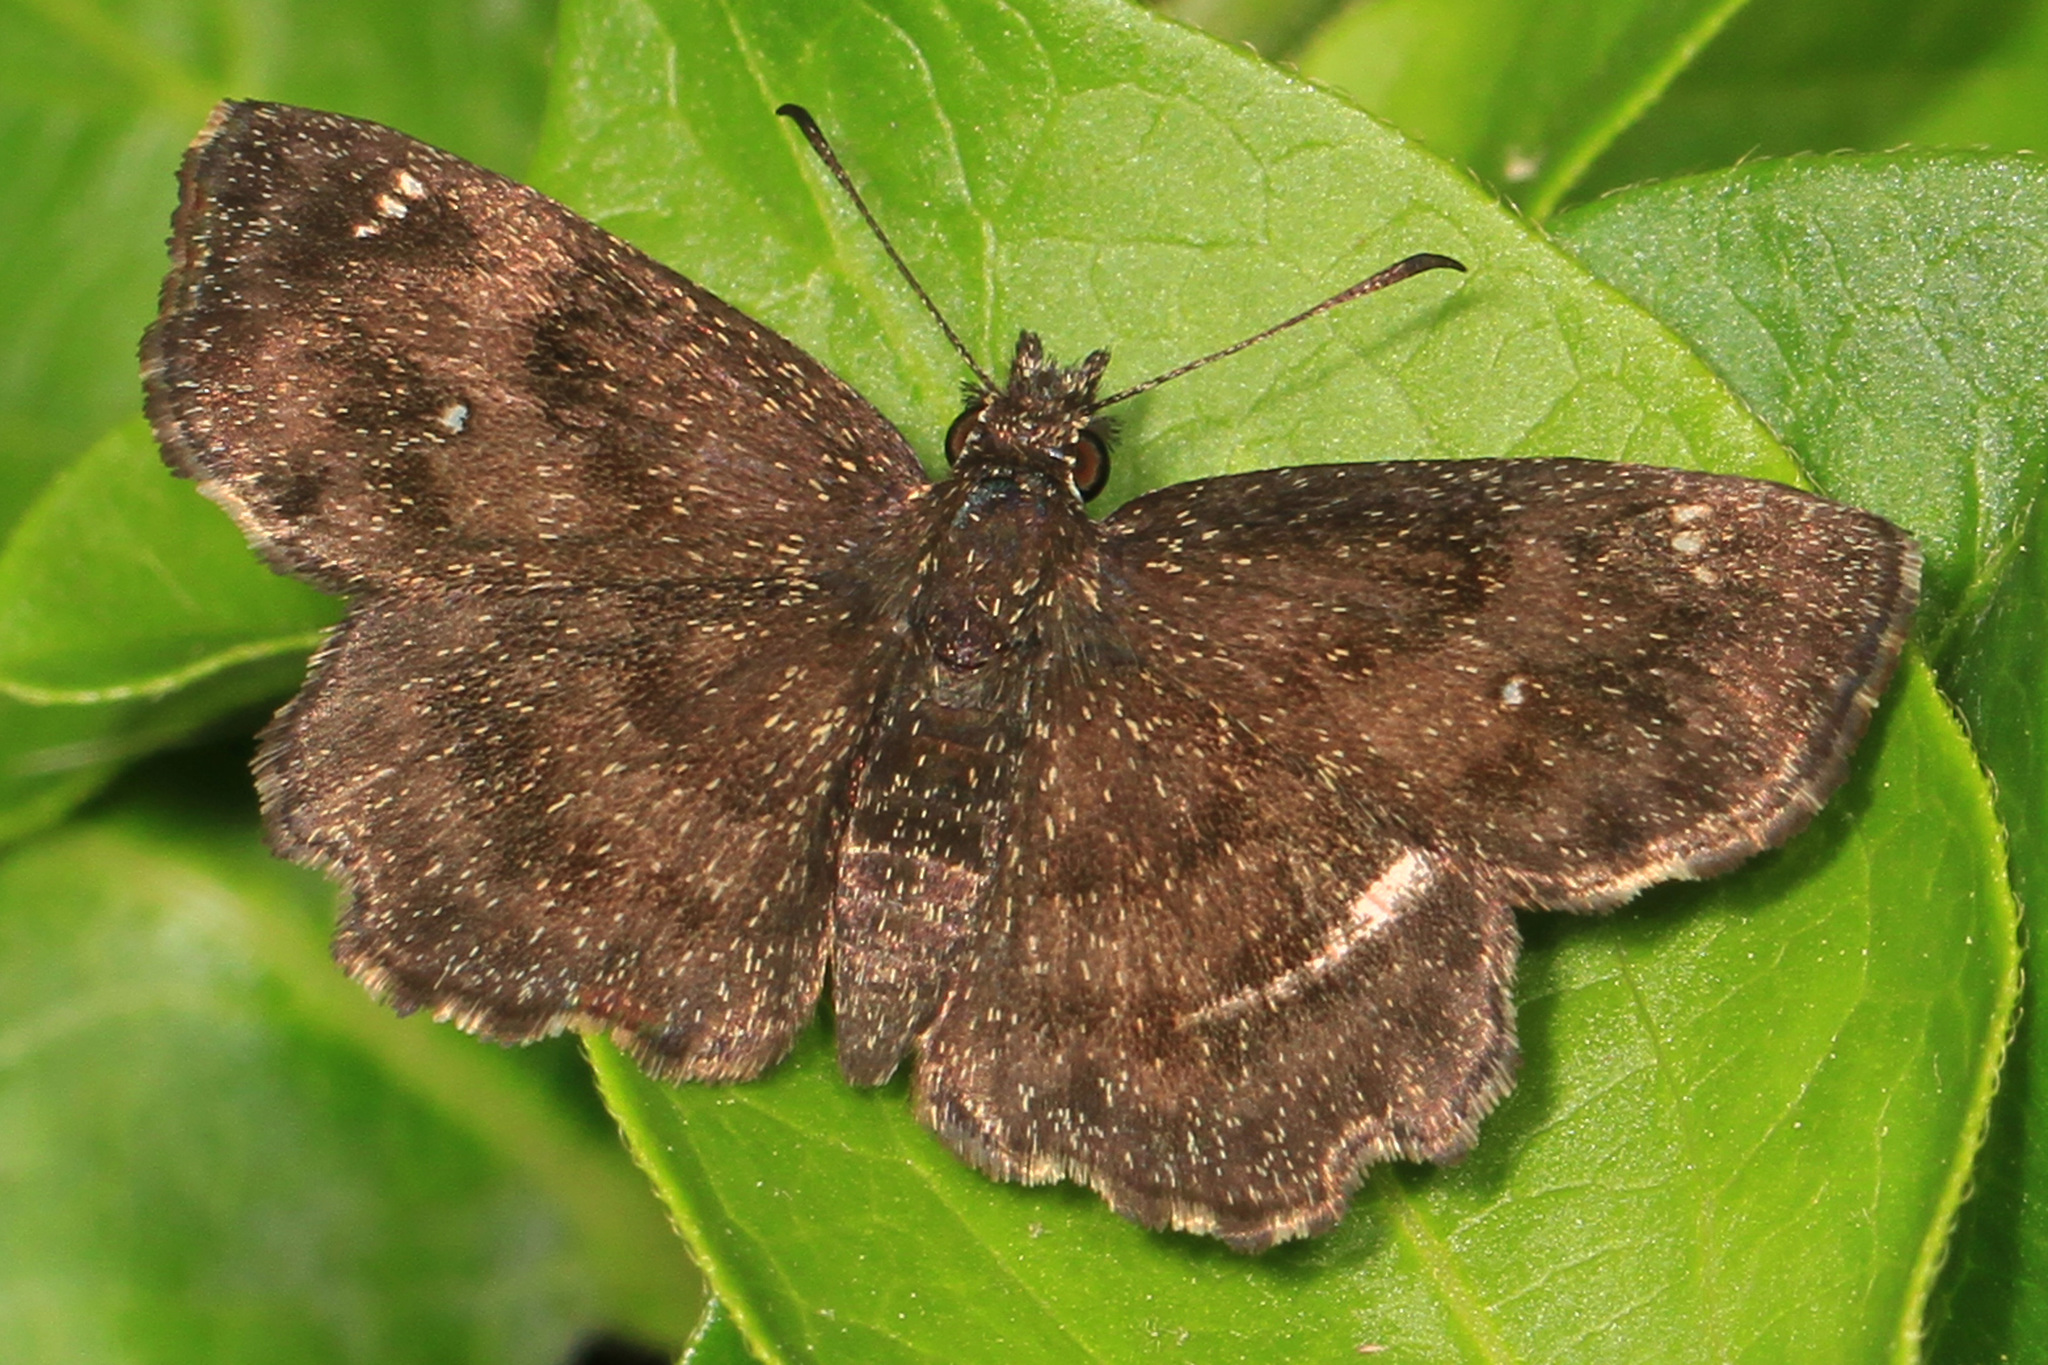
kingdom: Animalia
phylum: Arthropoda
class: Insecta
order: Lepidoptera
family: Hesperiidae
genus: Staphylus
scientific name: Staphylus mazans
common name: Mazans scallopwing
